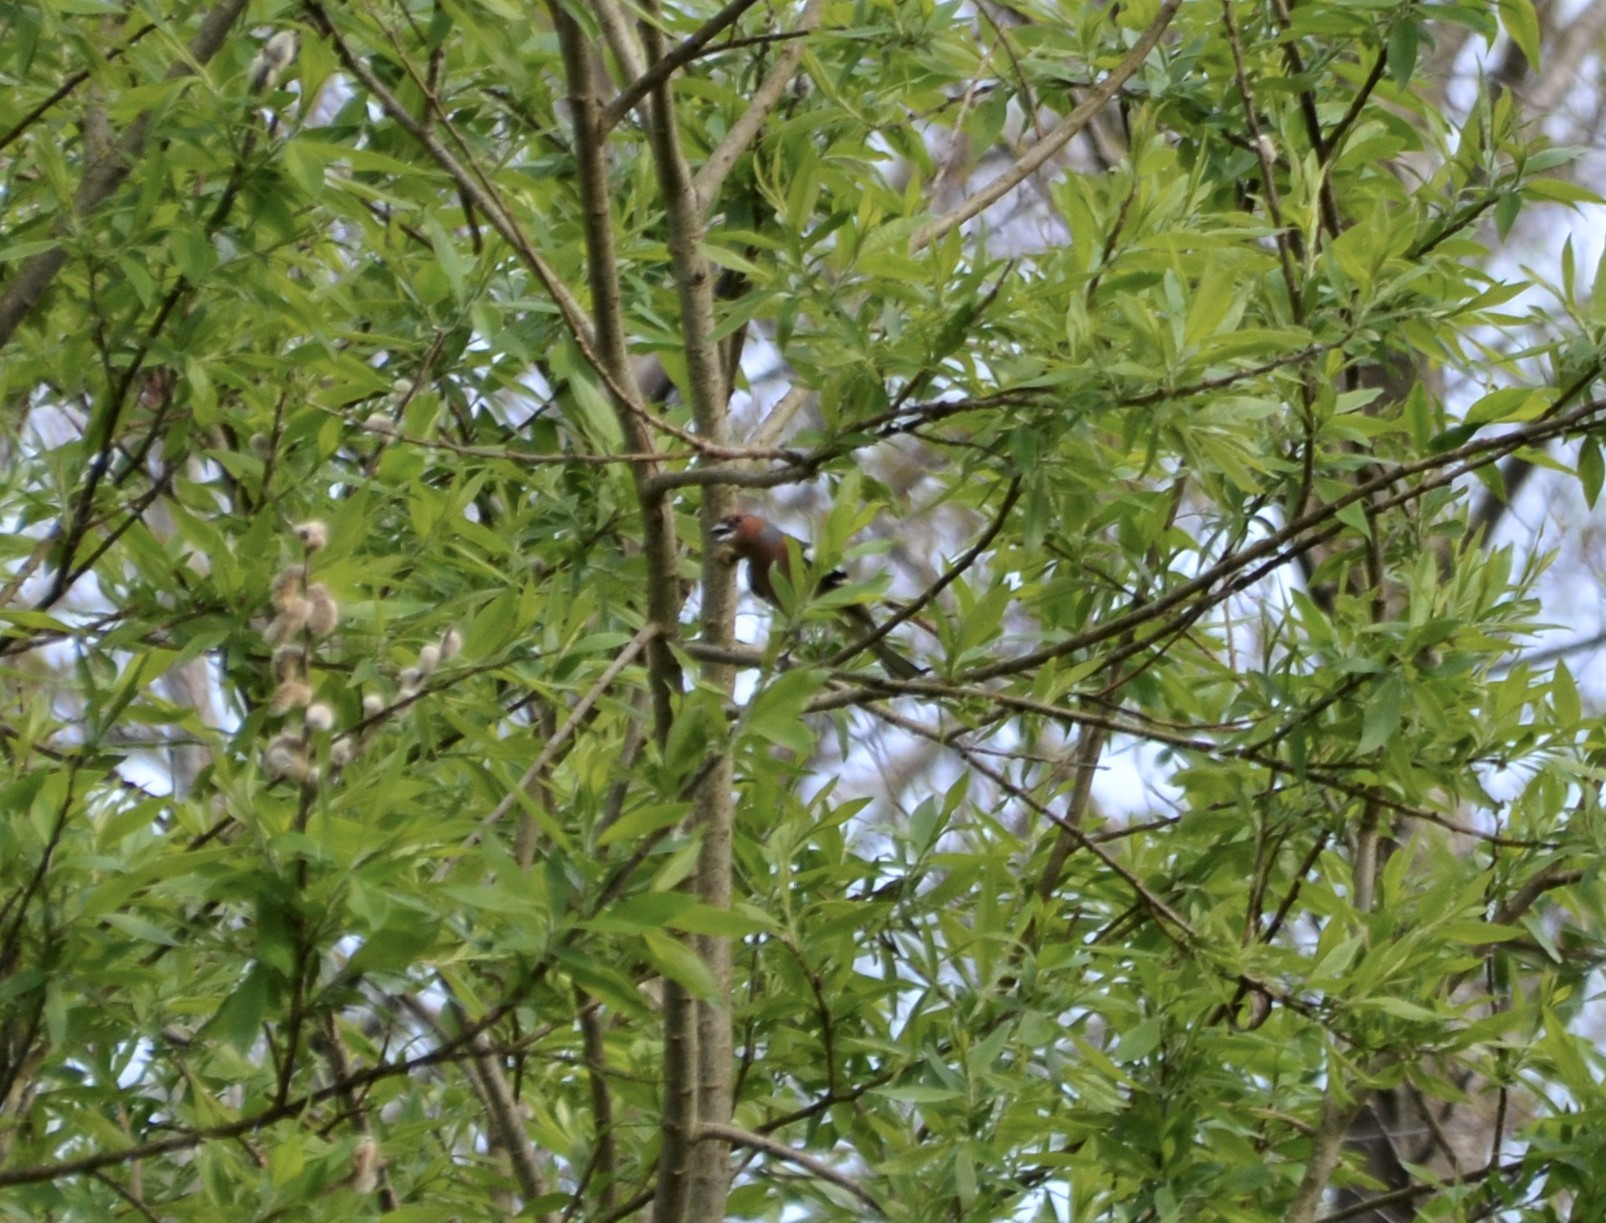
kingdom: Animalia
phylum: Chordata
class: Aves
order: Passeriformes
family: Fringillidae
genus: Fringilla
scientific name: Fringilla coelebs
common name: Common chaffinch
